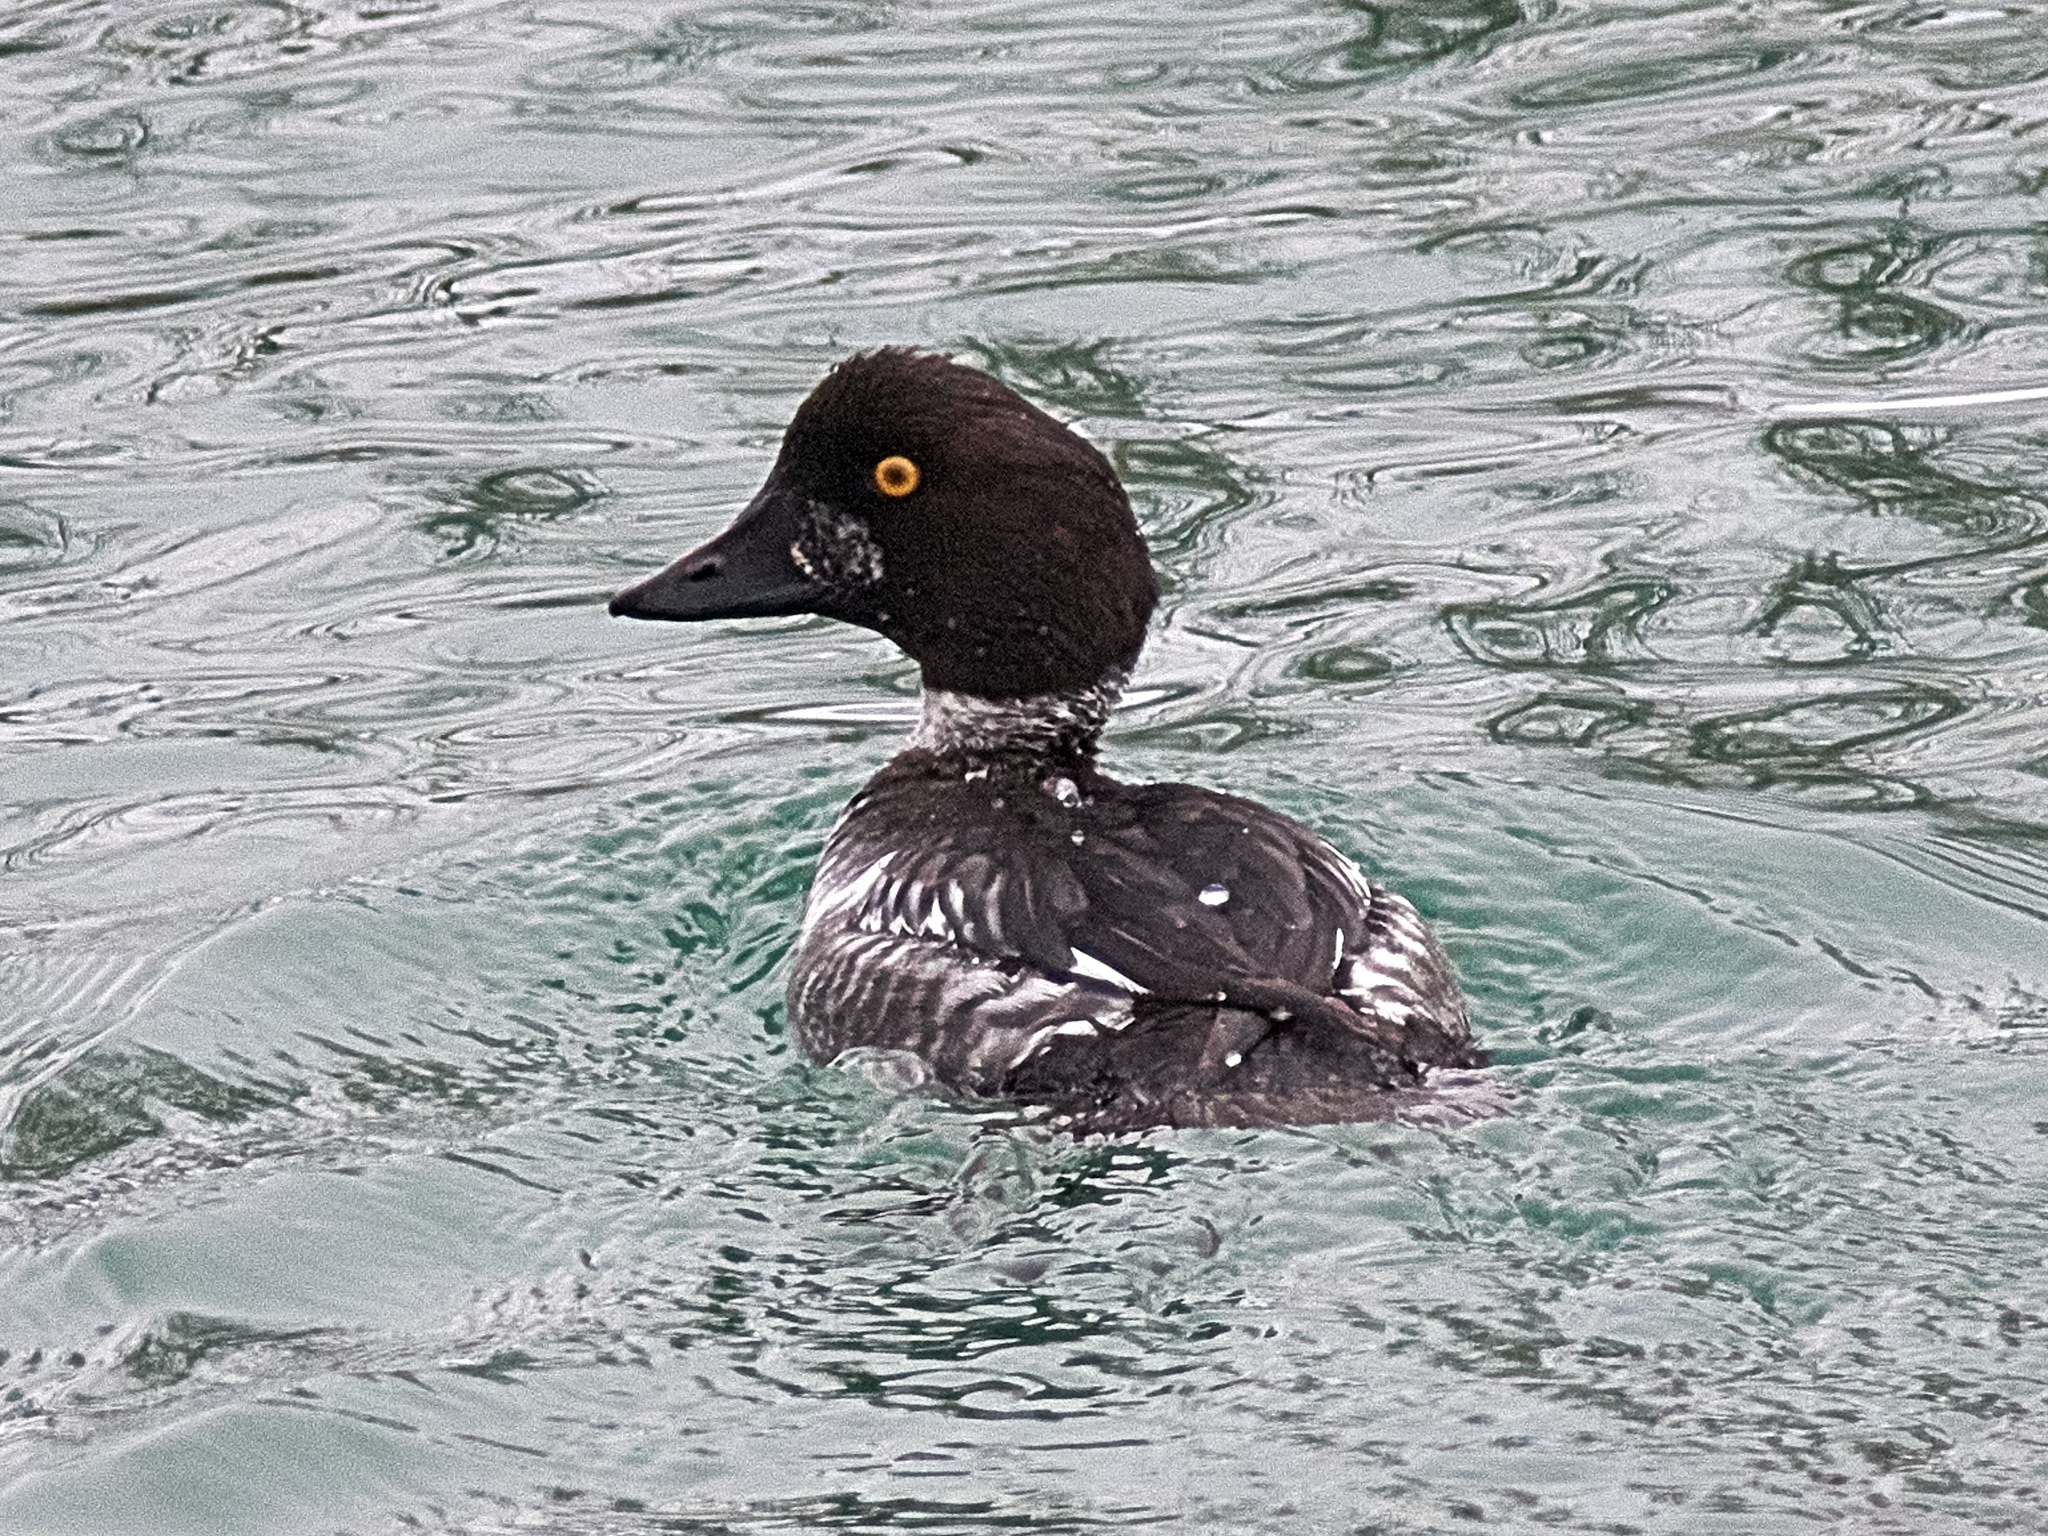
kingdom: Animalia
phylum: Chordata
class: Aves
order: Anseriformes
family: Anatidae
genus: Bucephala
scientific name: Bucephala clangula
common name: Common goldeneye
